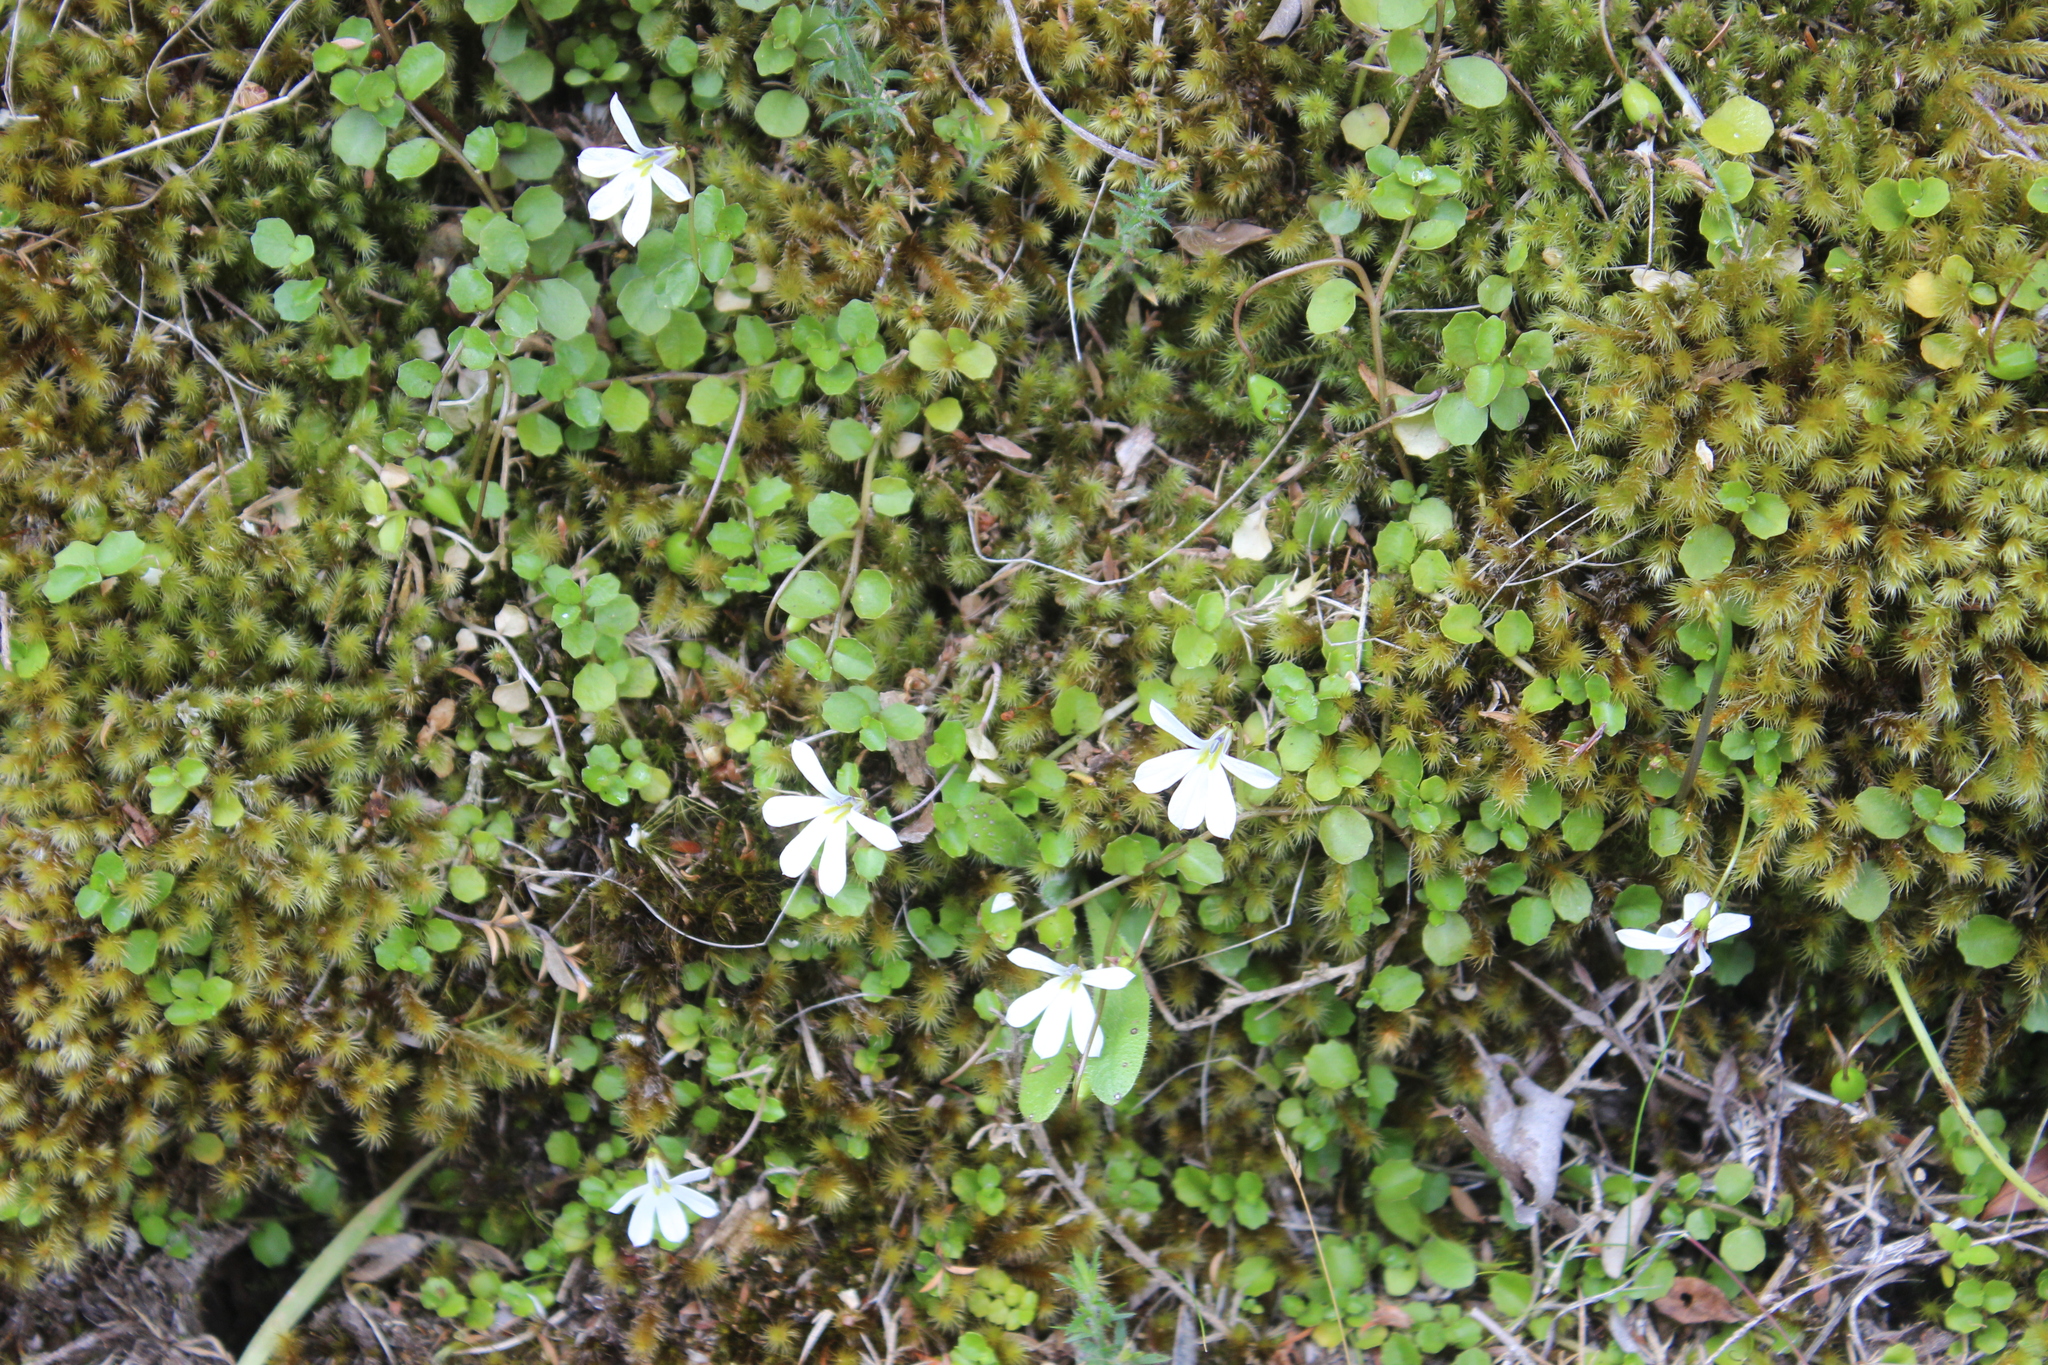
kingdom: Plantae
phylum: Tracheophyta
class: Magnoliopsida
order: Asterales
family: Campanulaceae
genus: Lobelia
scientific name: Lobelia angulata
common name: Lawn lobelia
